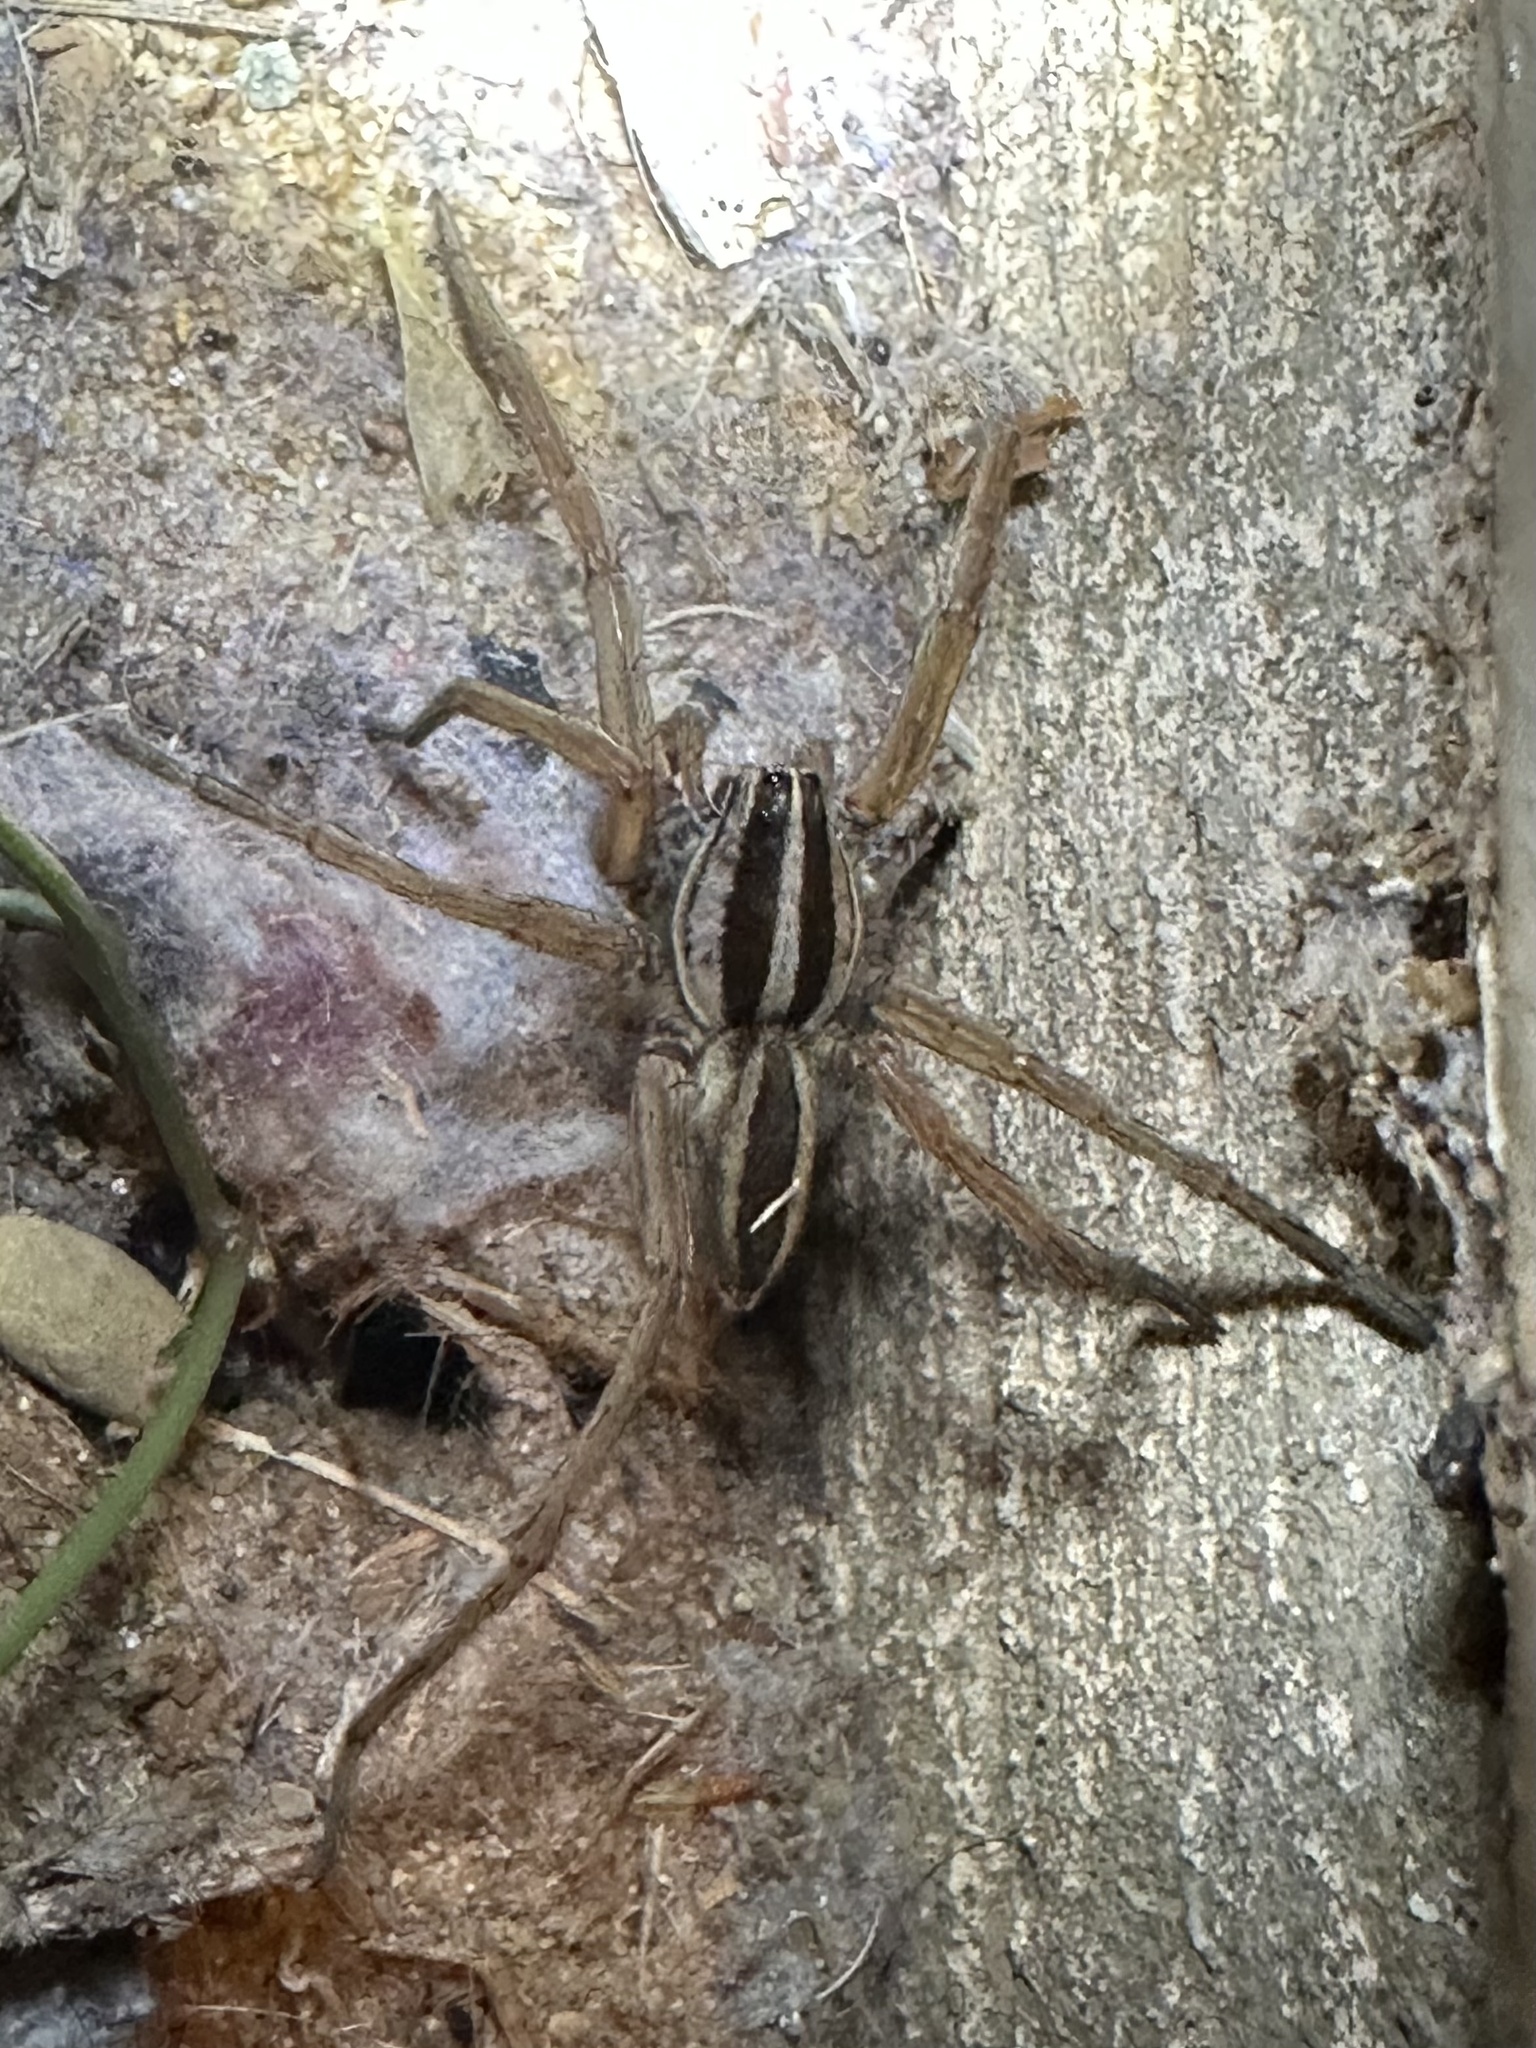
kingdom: Animalia
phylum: Arthropoda
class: Arachnida
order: Araneae
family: Lycosidae
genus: Rabidosa
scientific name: Rabidosa punctulata
